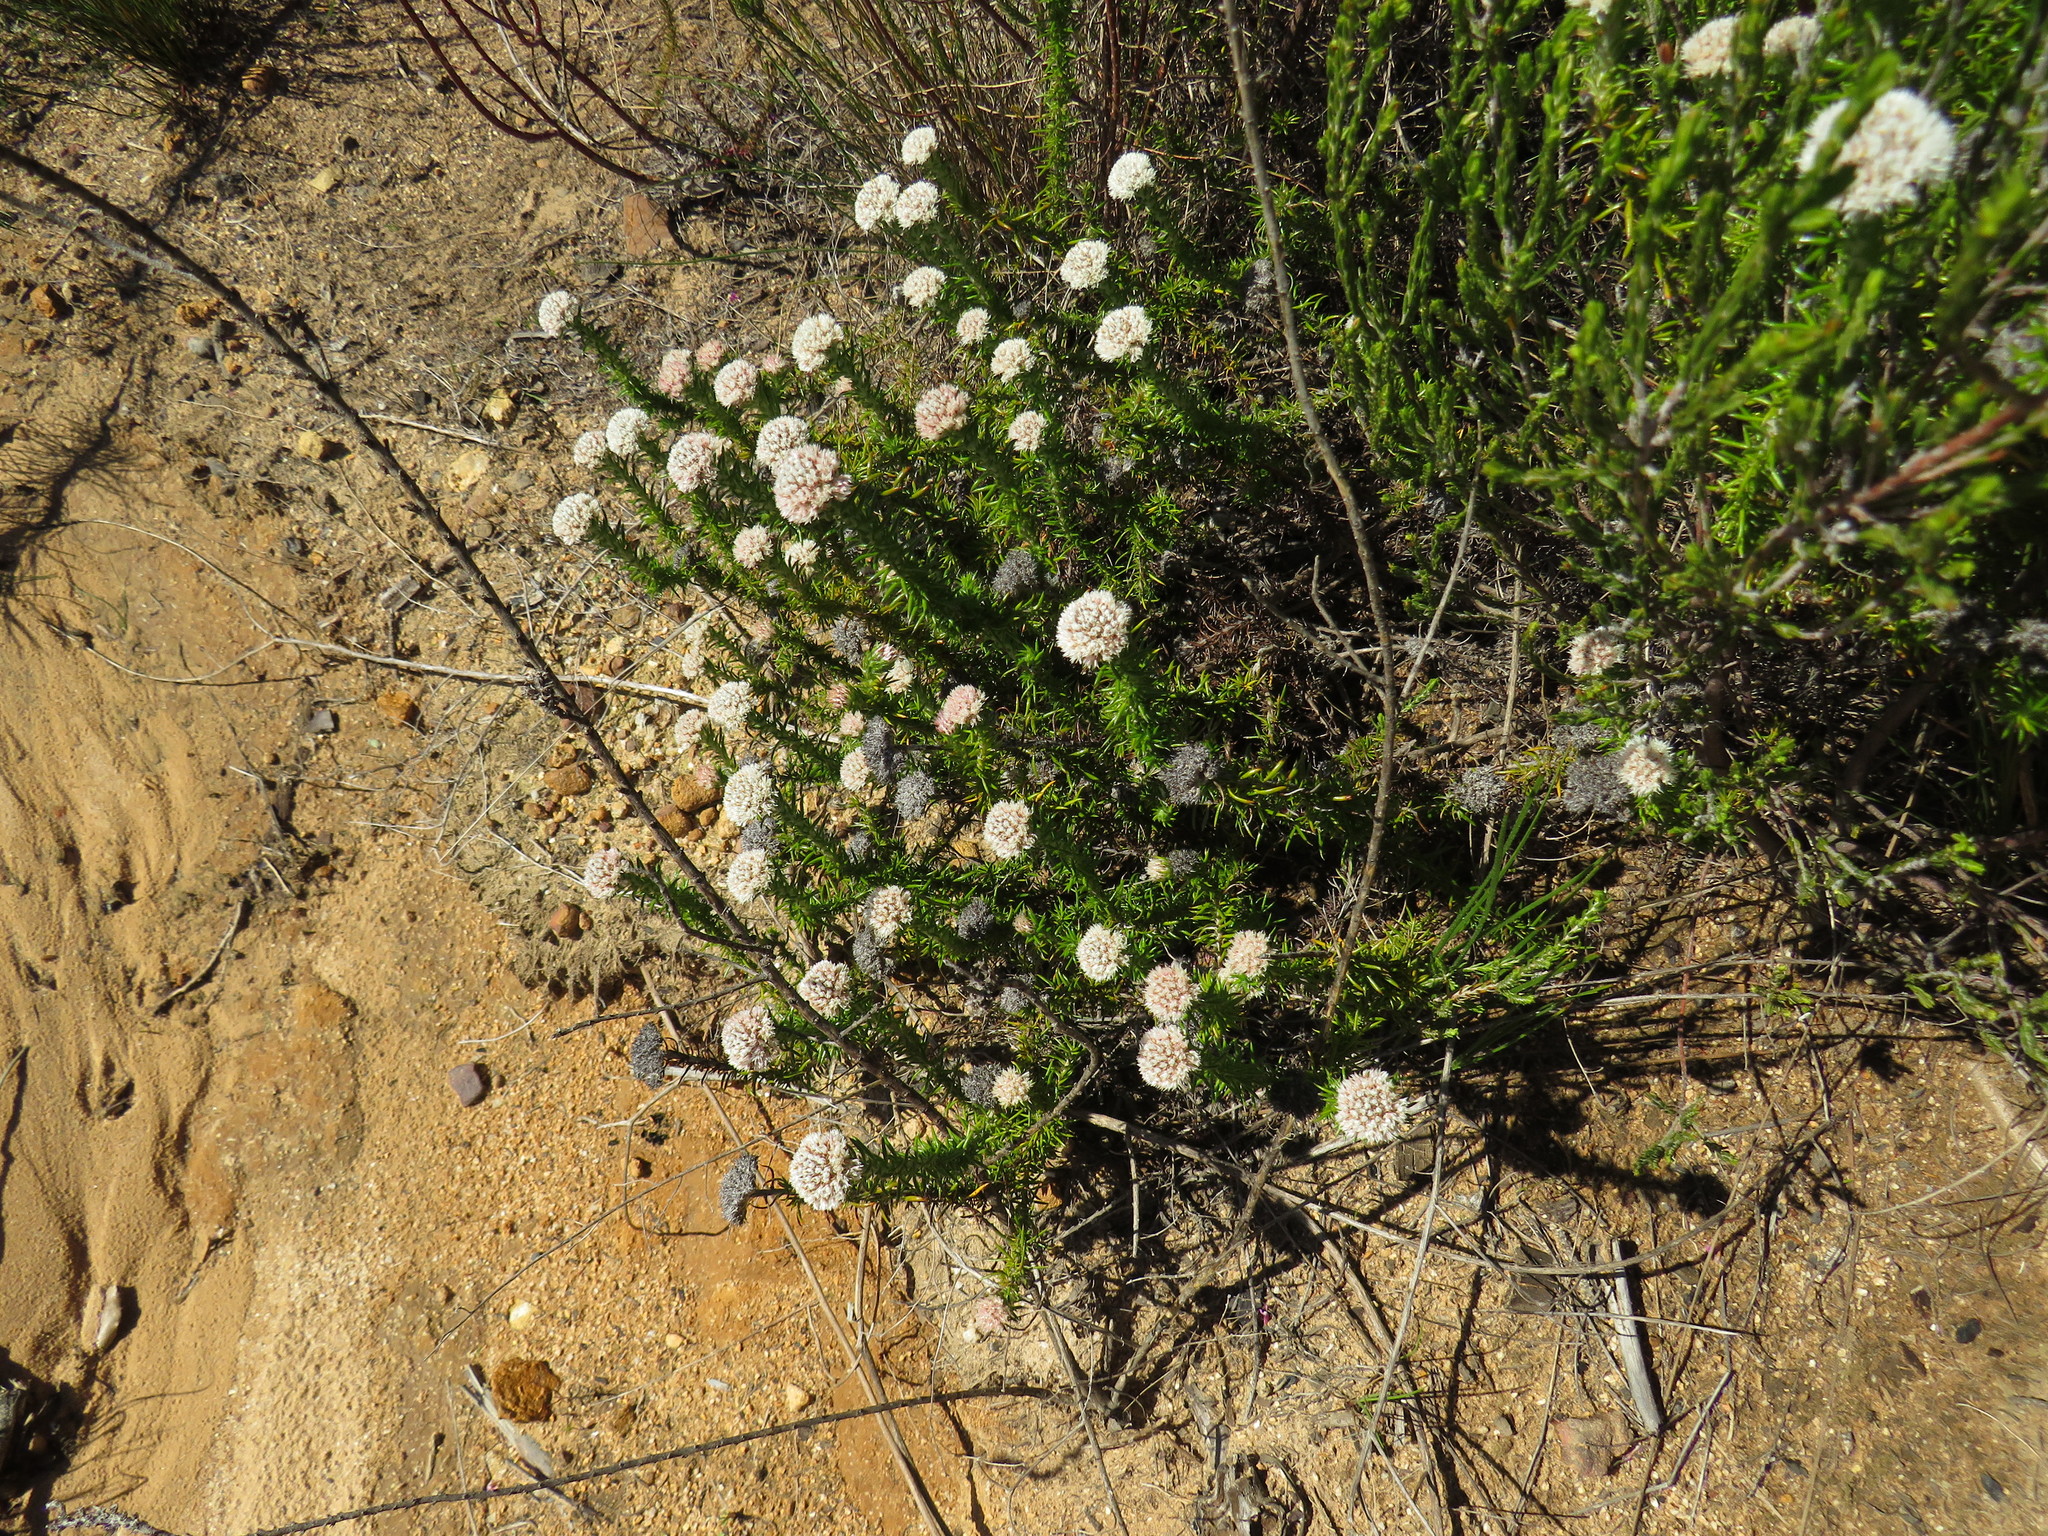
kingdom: Plantae
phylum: Tracheophyta
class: Magnoliopsida
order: Asterales
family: Asteraceae
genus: Metalasia
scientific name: Metalasia pulchella
